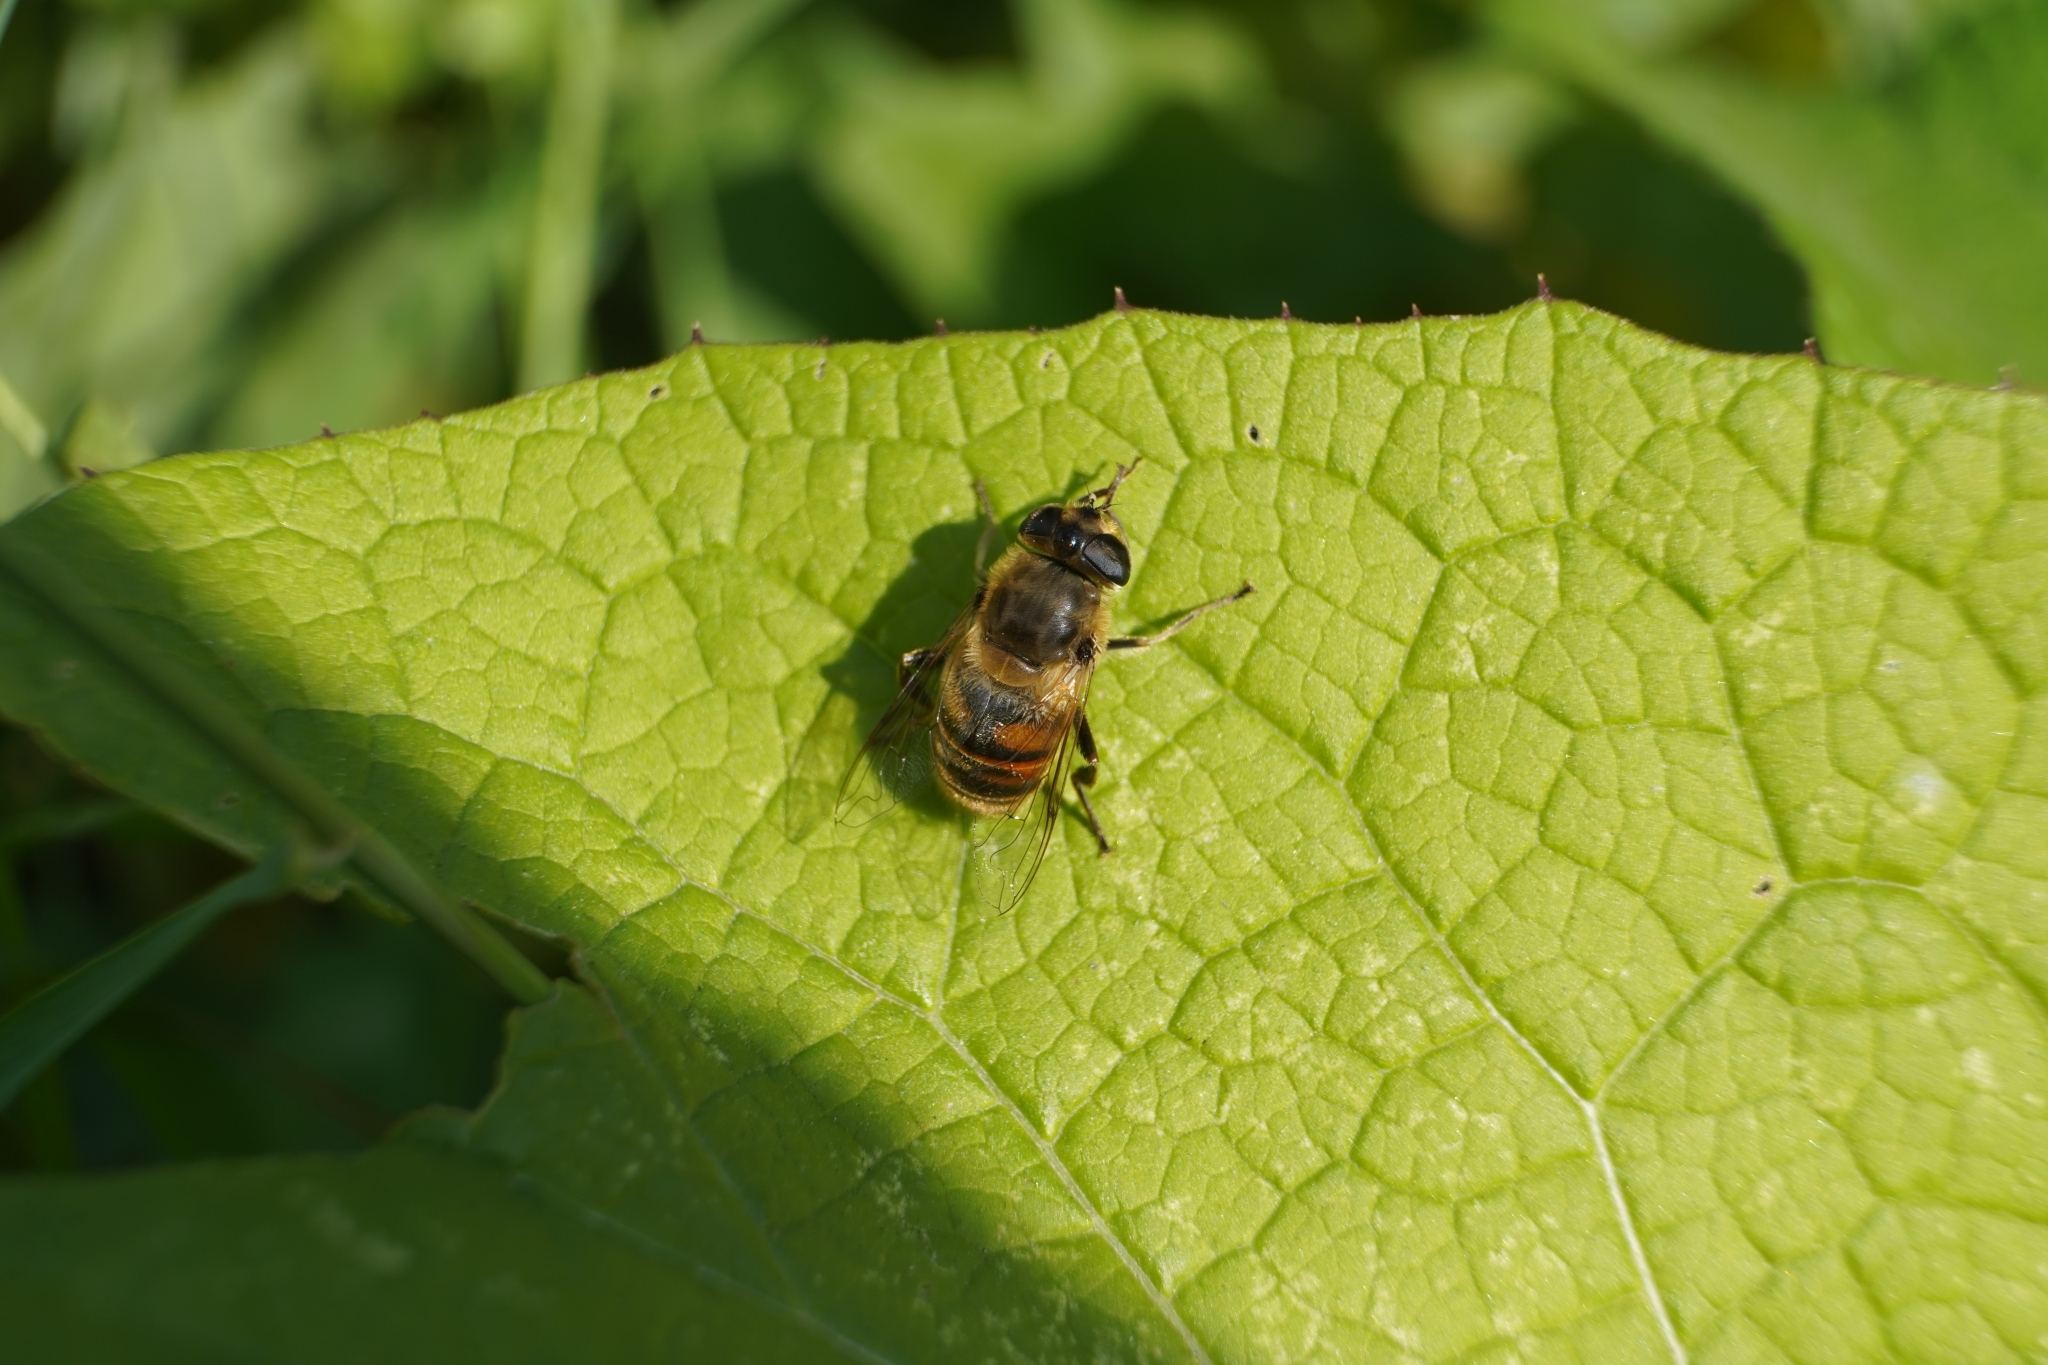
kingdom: Animalia
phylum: Arthropoda
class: Insecta
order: Diptera
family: Syrphidae
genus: Eristalis
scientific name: Eristalis tenax
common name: Drone fly
